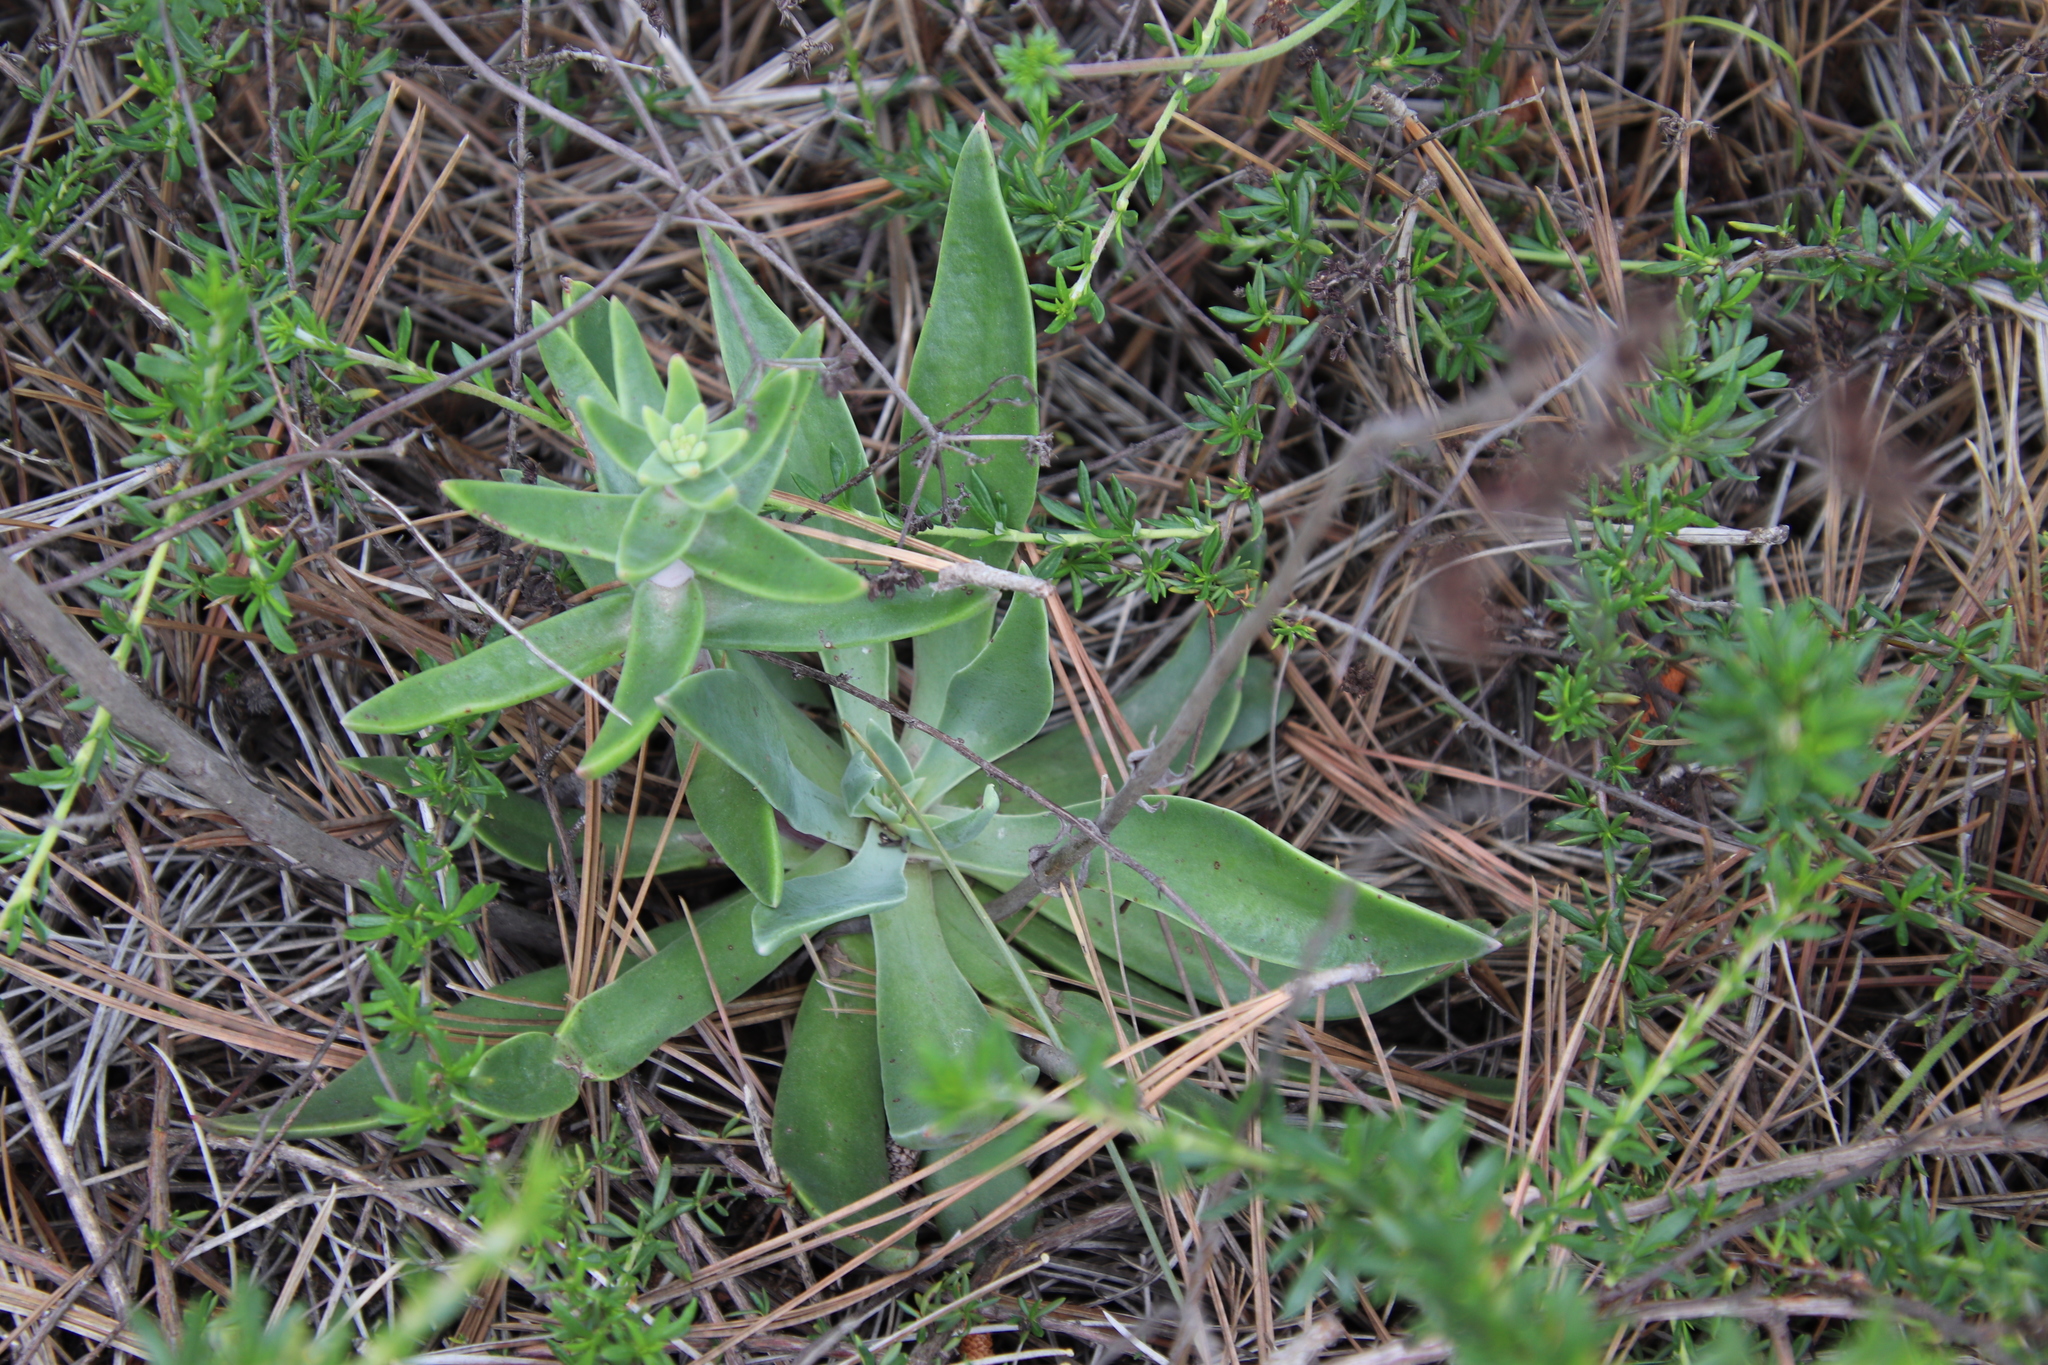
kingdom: Plantae
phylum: Tracheophyta
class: Magnoliopsida
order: Saxifragales
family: Crassulaceae
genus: Dudleya
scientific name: Dudleya lanceolata
